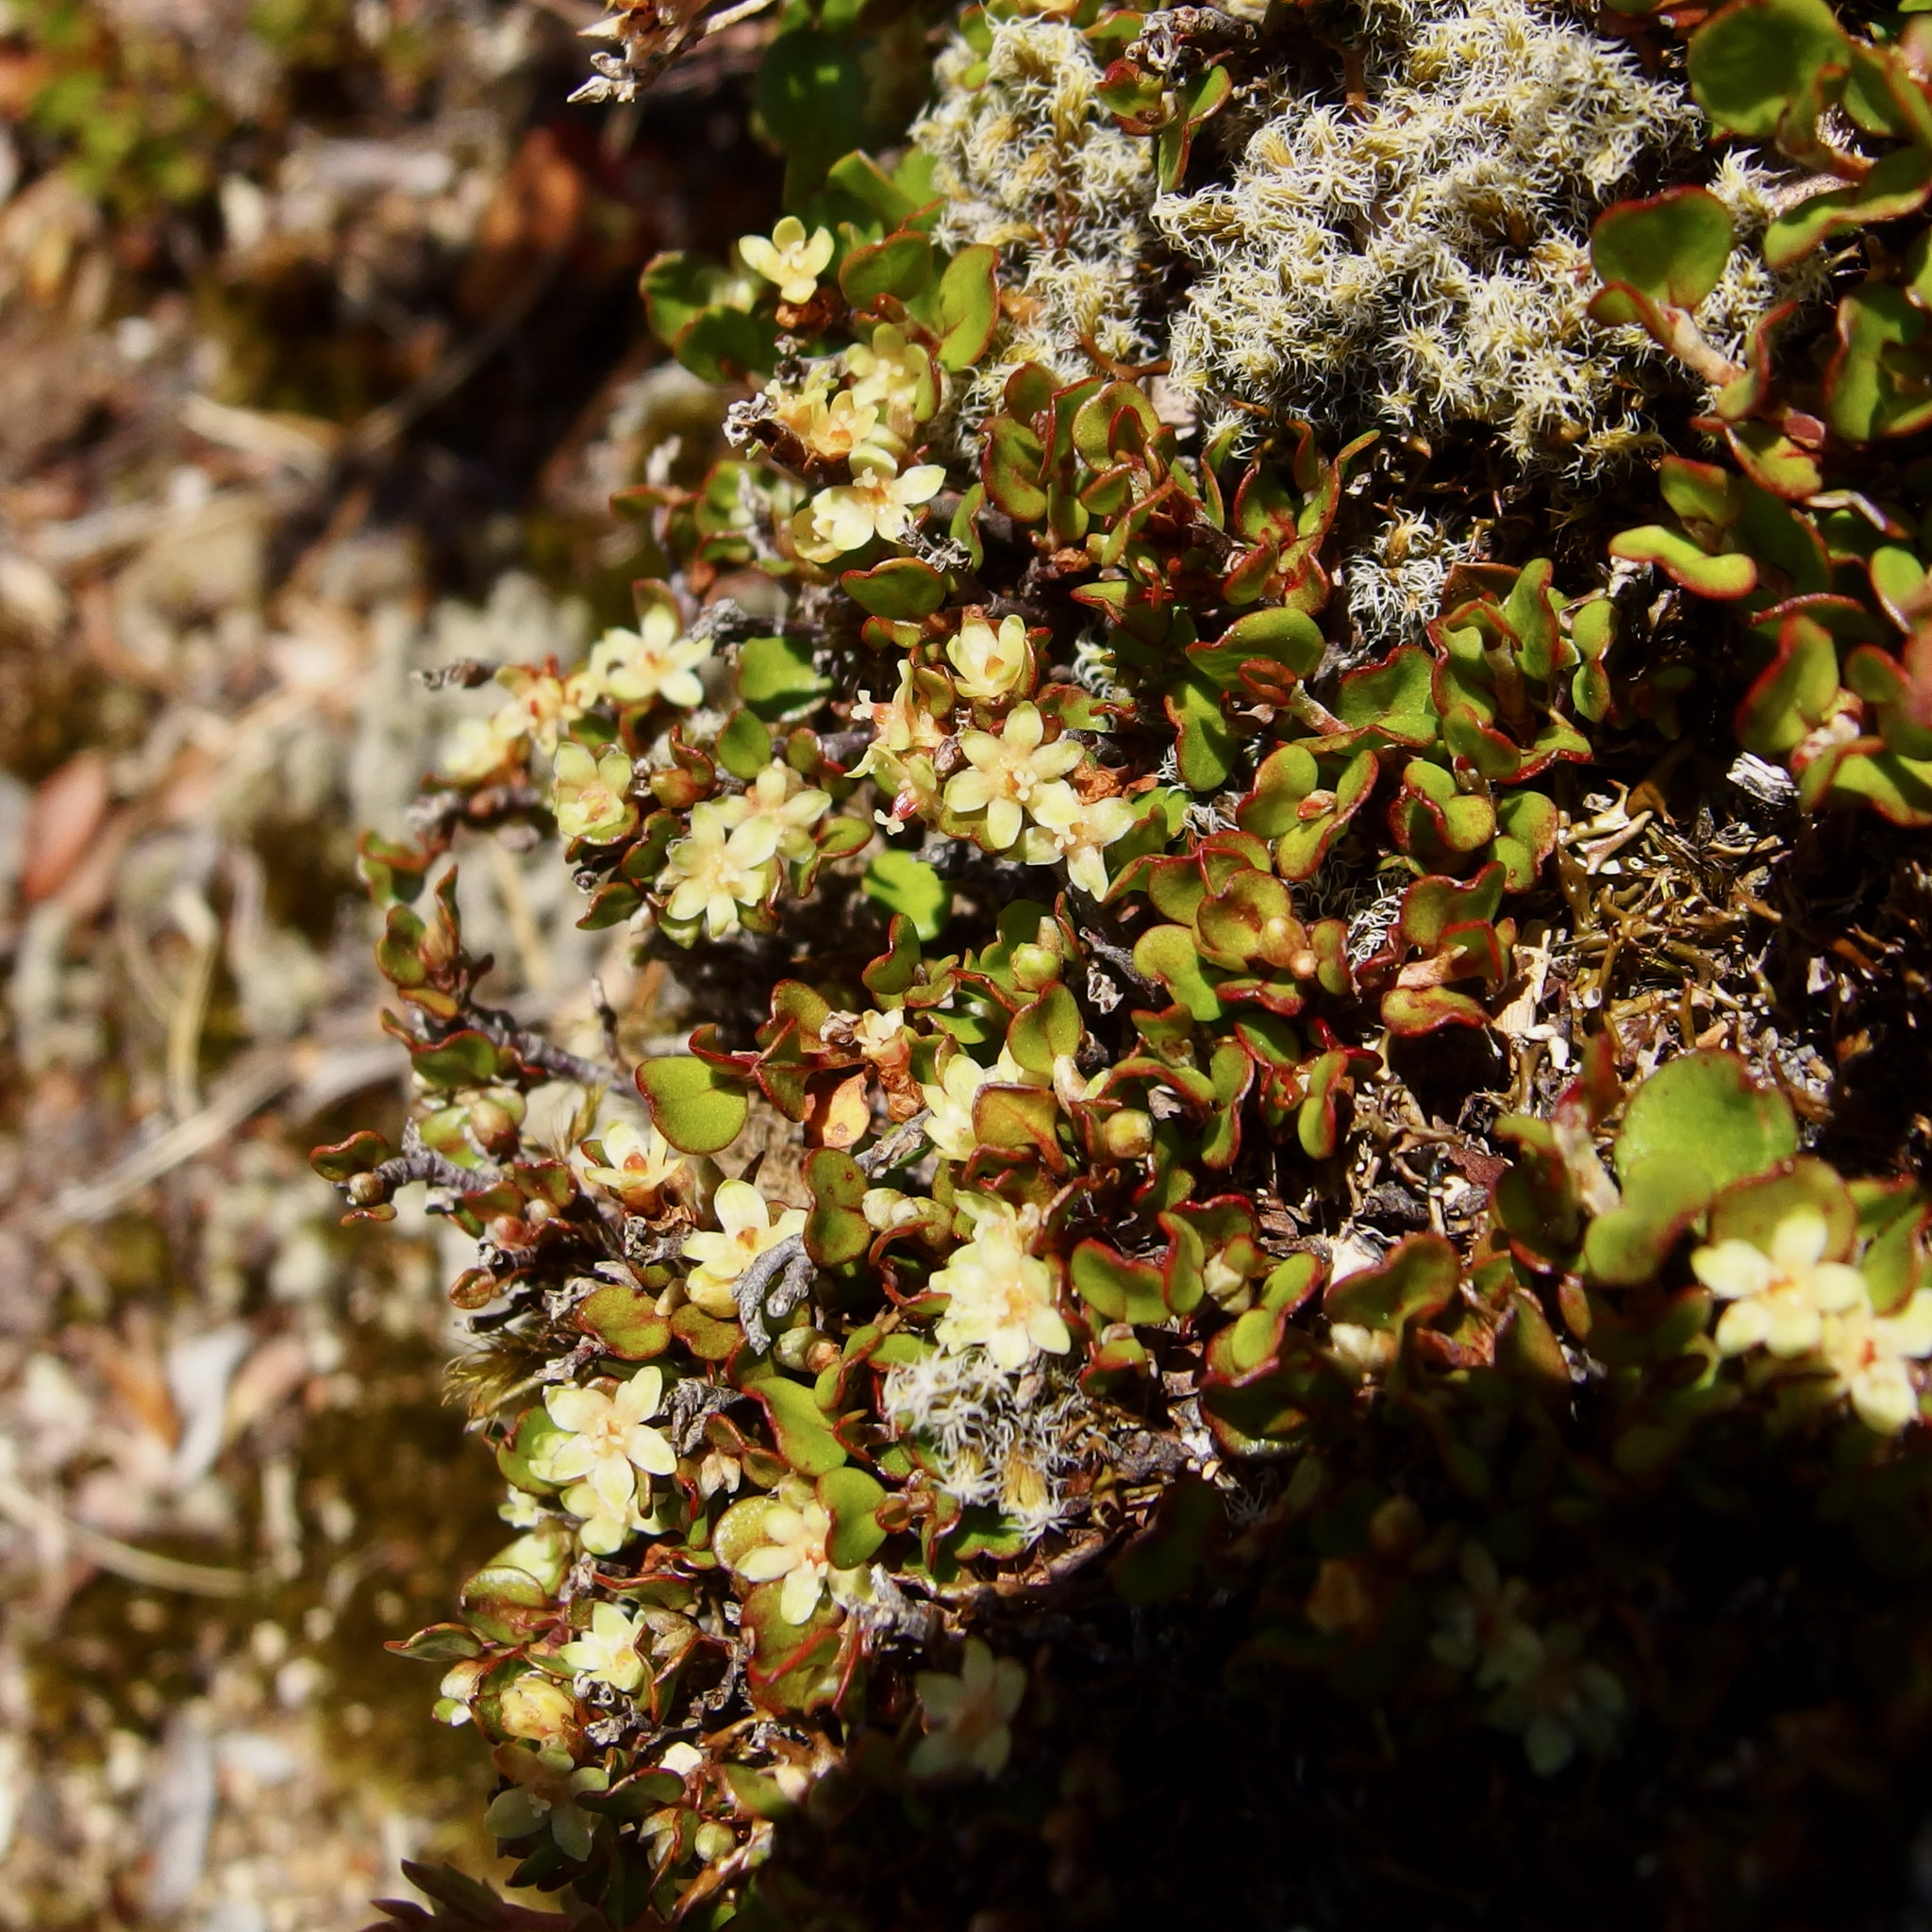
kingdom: Plantae
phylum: Tracheophyta
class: Magnoliopsida
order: Caryophyllales
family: Polygonaceae
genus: Muehlenbeckia
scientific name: Muehlenbeckia axillaris
